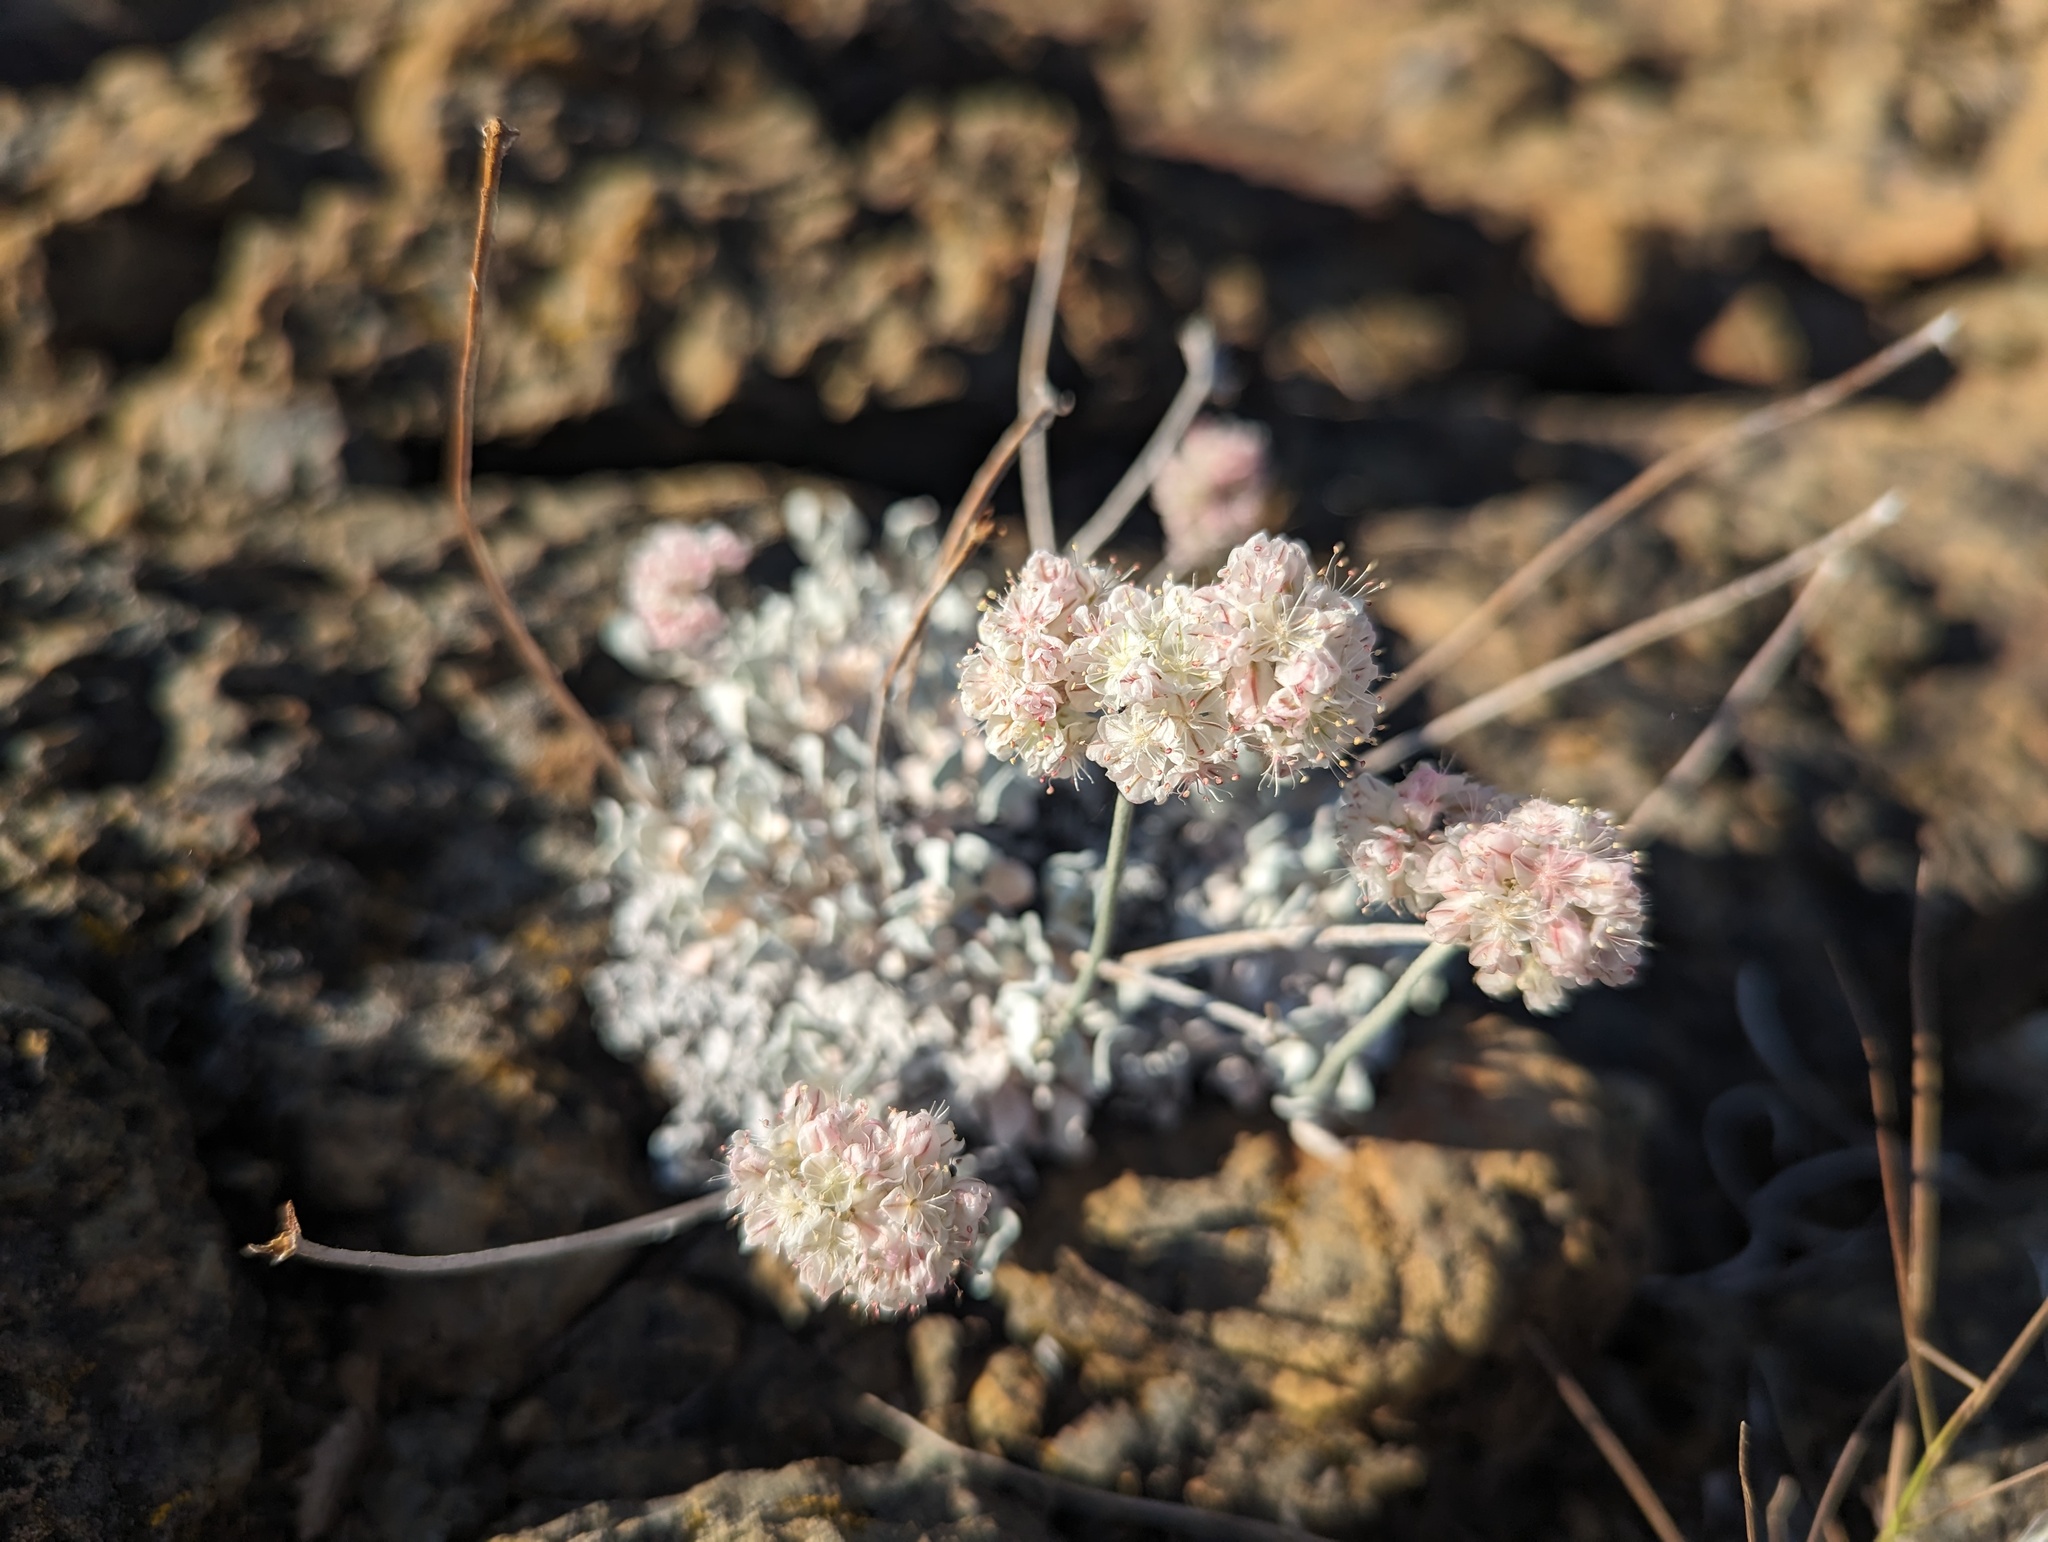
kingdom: Plantae
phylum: Tracheophyta
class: Magnoliopsida
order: Caryophyllales
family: Polygonaceae
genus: Eriogonum
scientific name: Eriogonum strictum
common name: Blue mountain buckwheat
